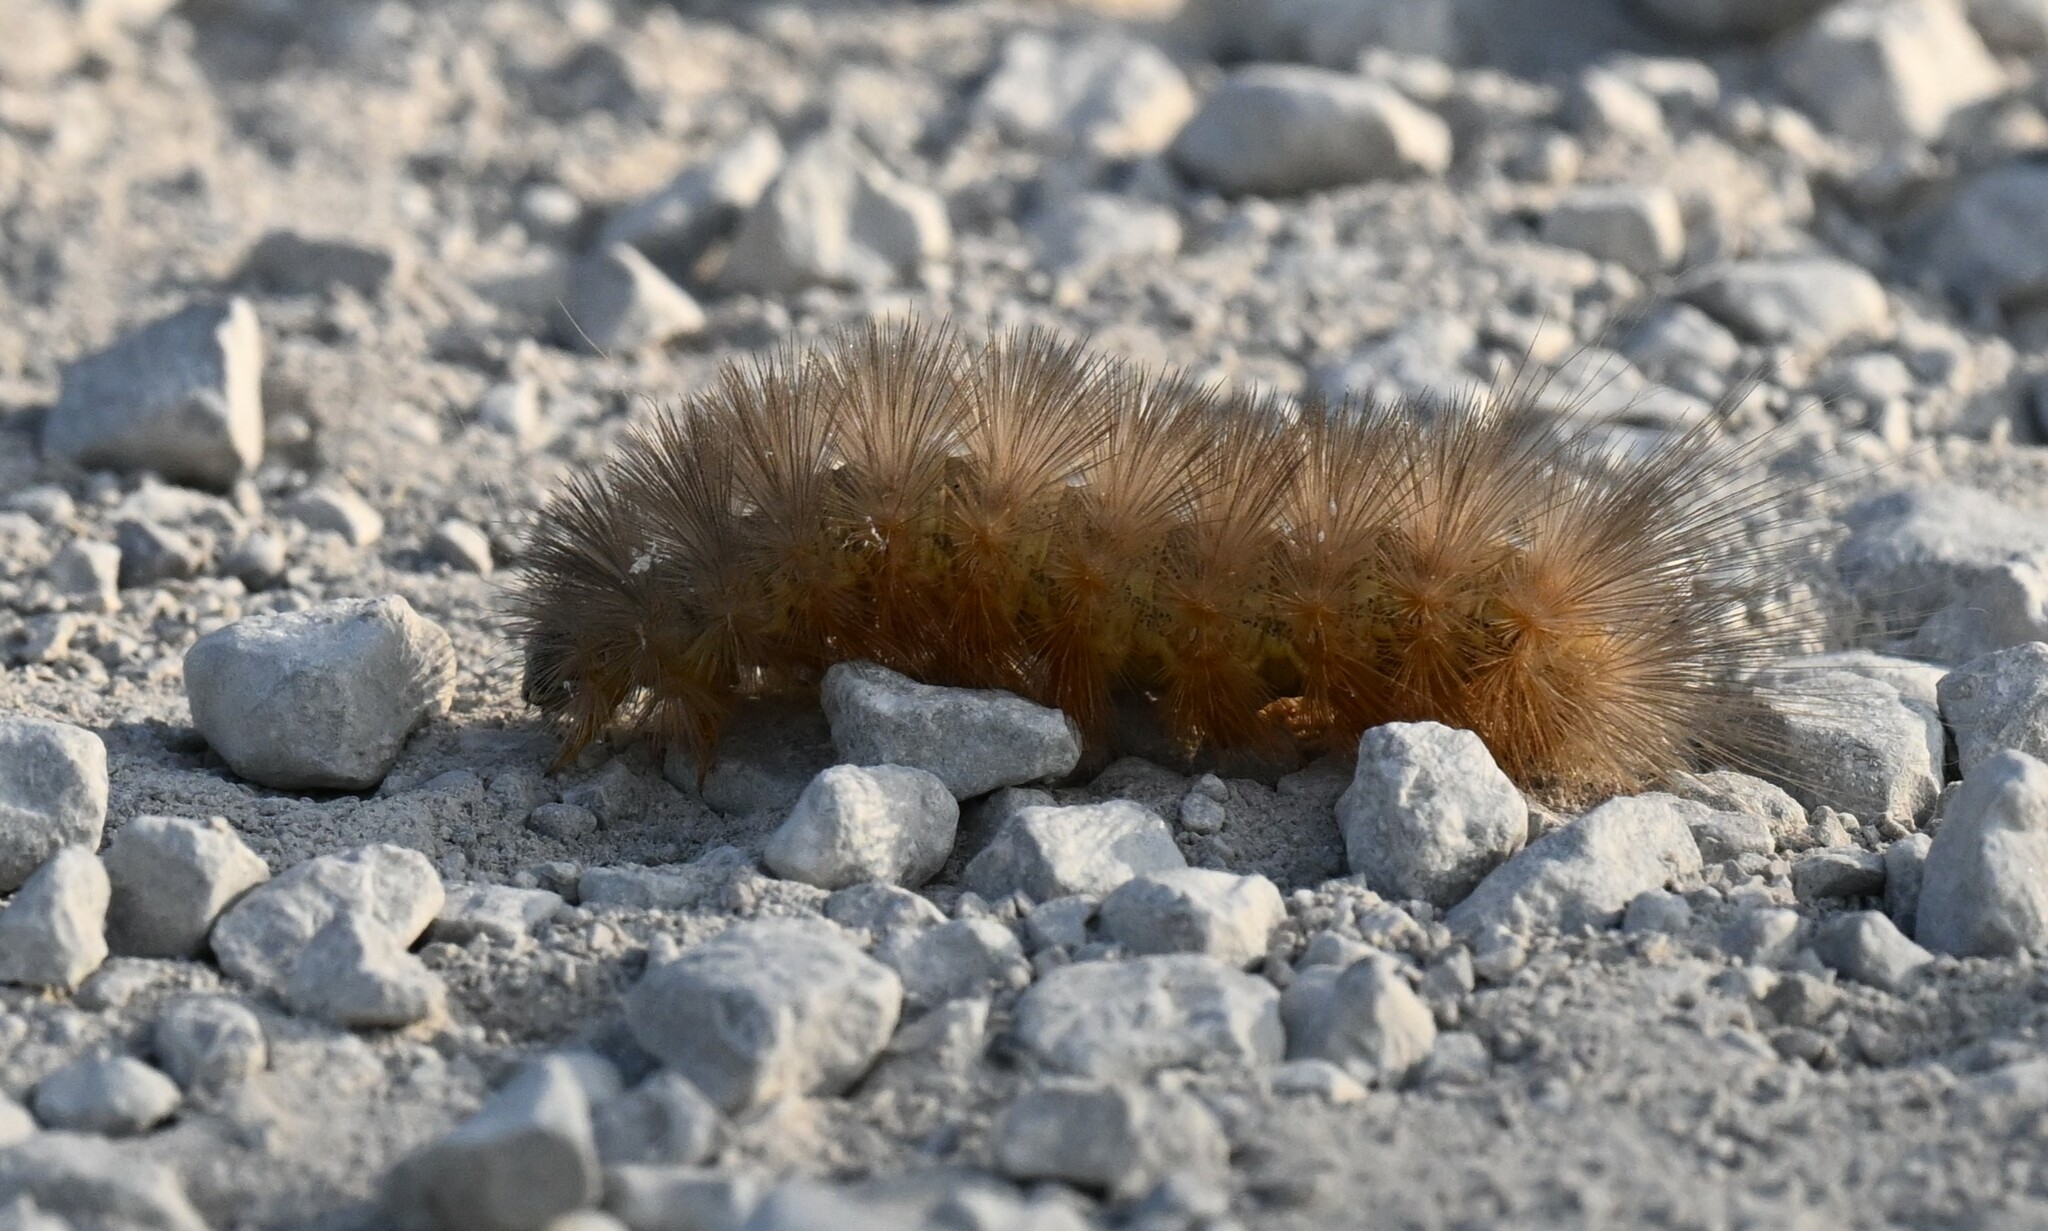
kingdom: Animalia
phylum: Arthropoda
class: Insecta
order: Lepidoptera
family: Erebidae
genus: Estigmene
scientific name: Estigmene acrea
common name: Salt marsh moth
